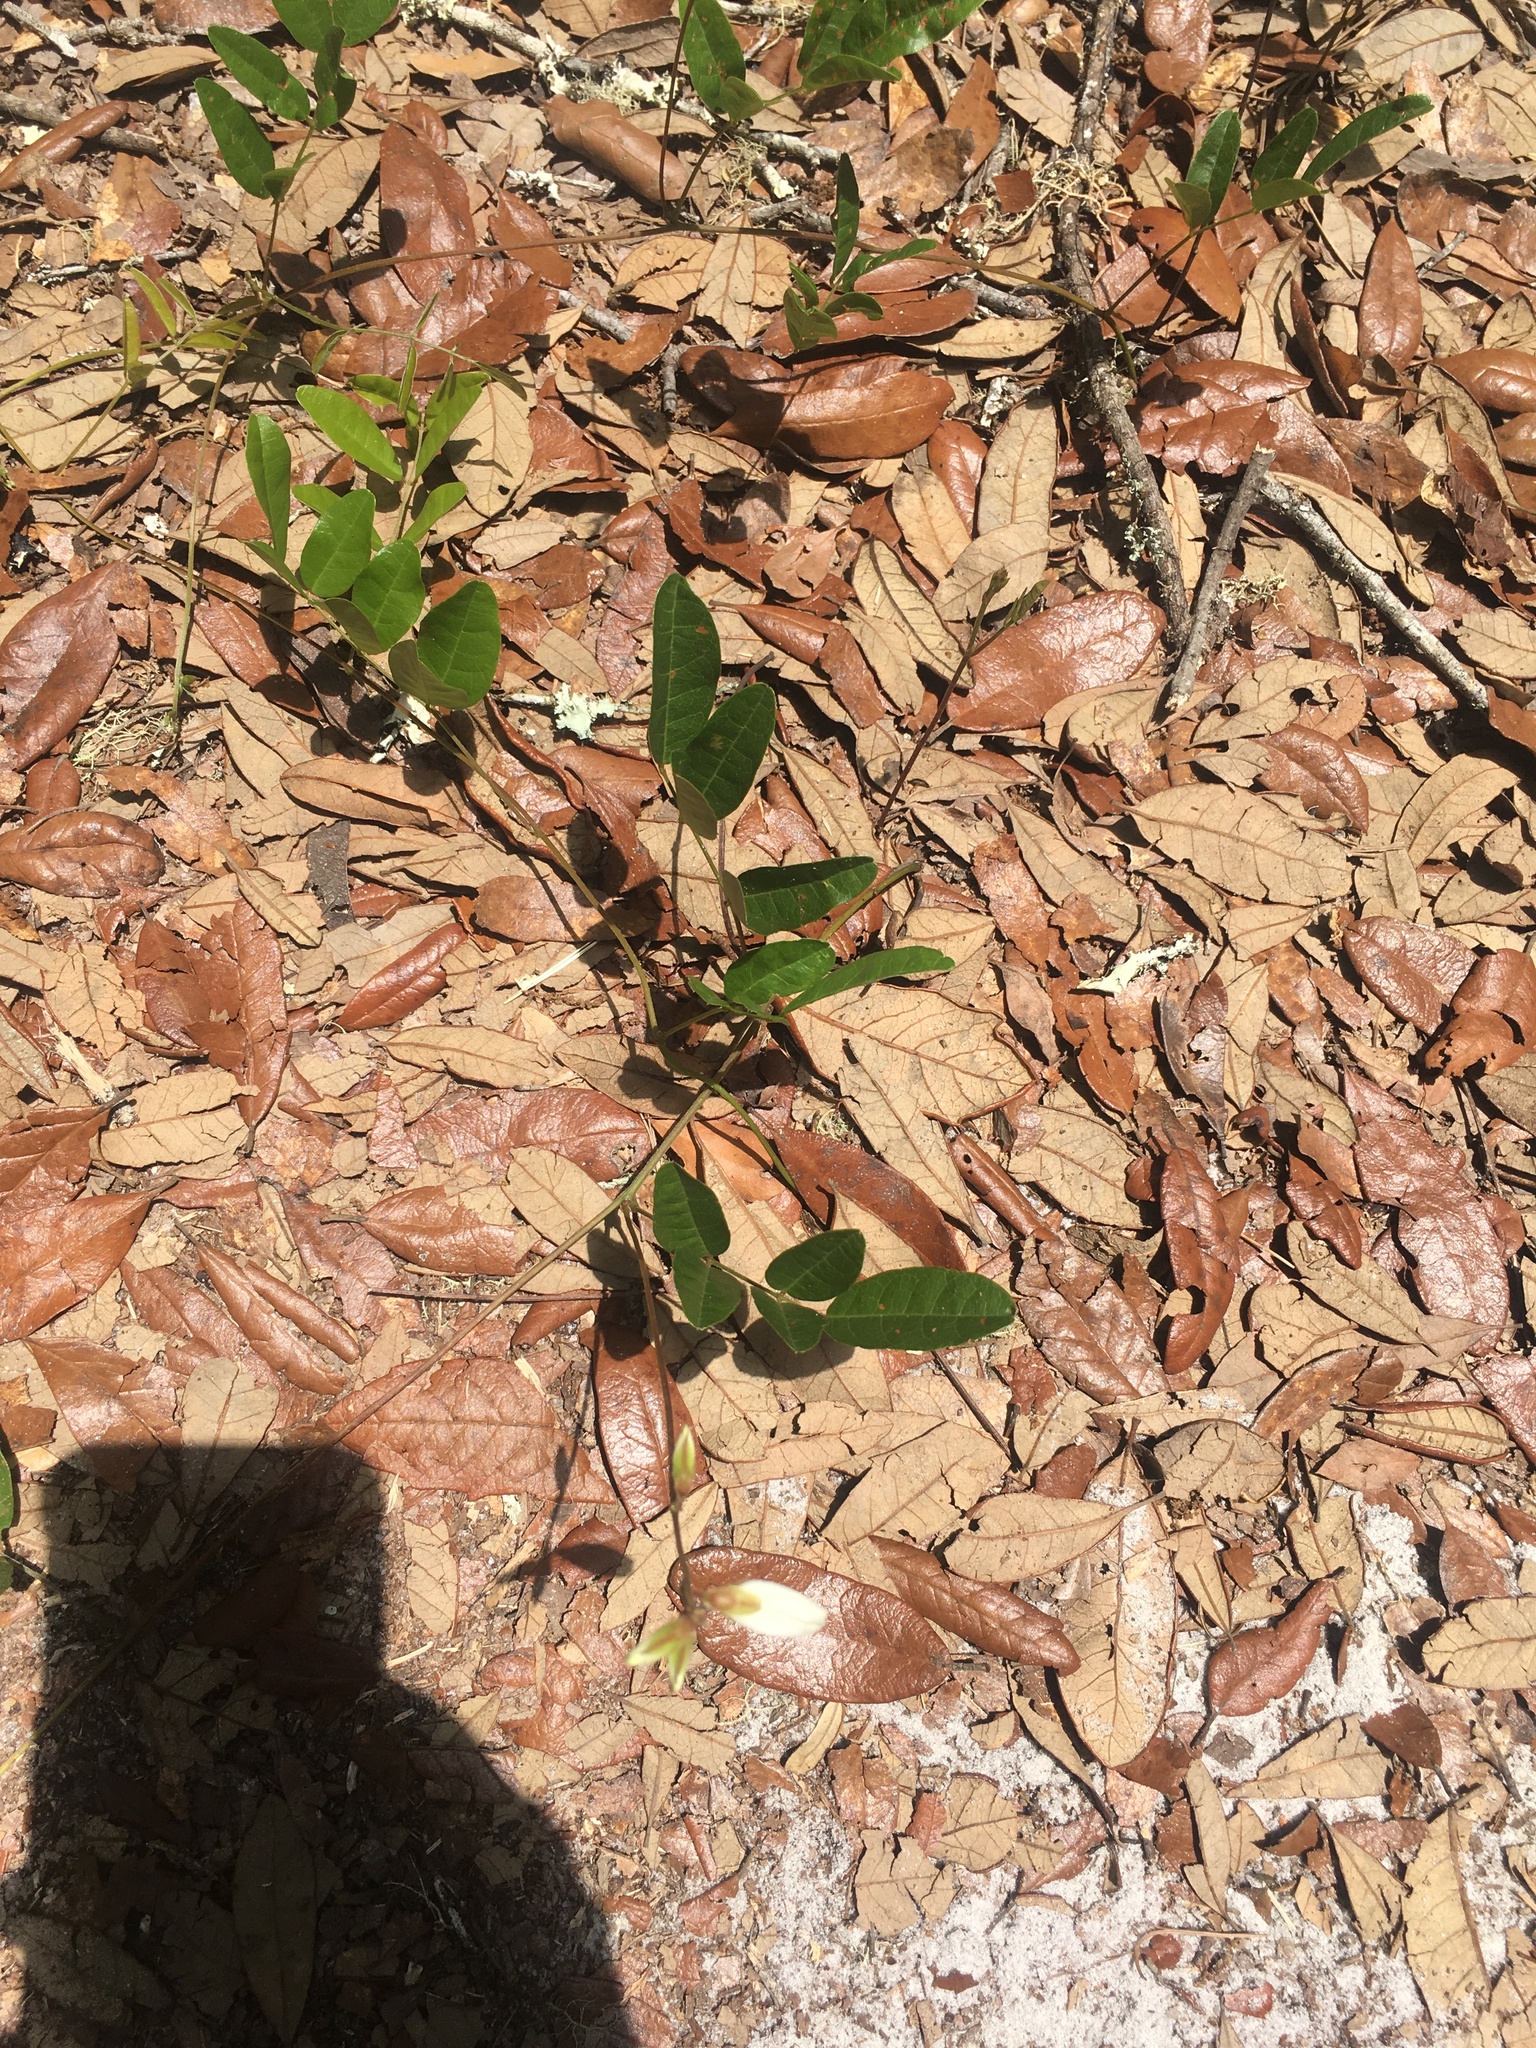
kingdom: Plantae
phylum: Tracheophyta
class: Magnoliopsida
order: Fabales
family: Fabaceae
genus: Galactia
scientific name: Galactia elliottii
